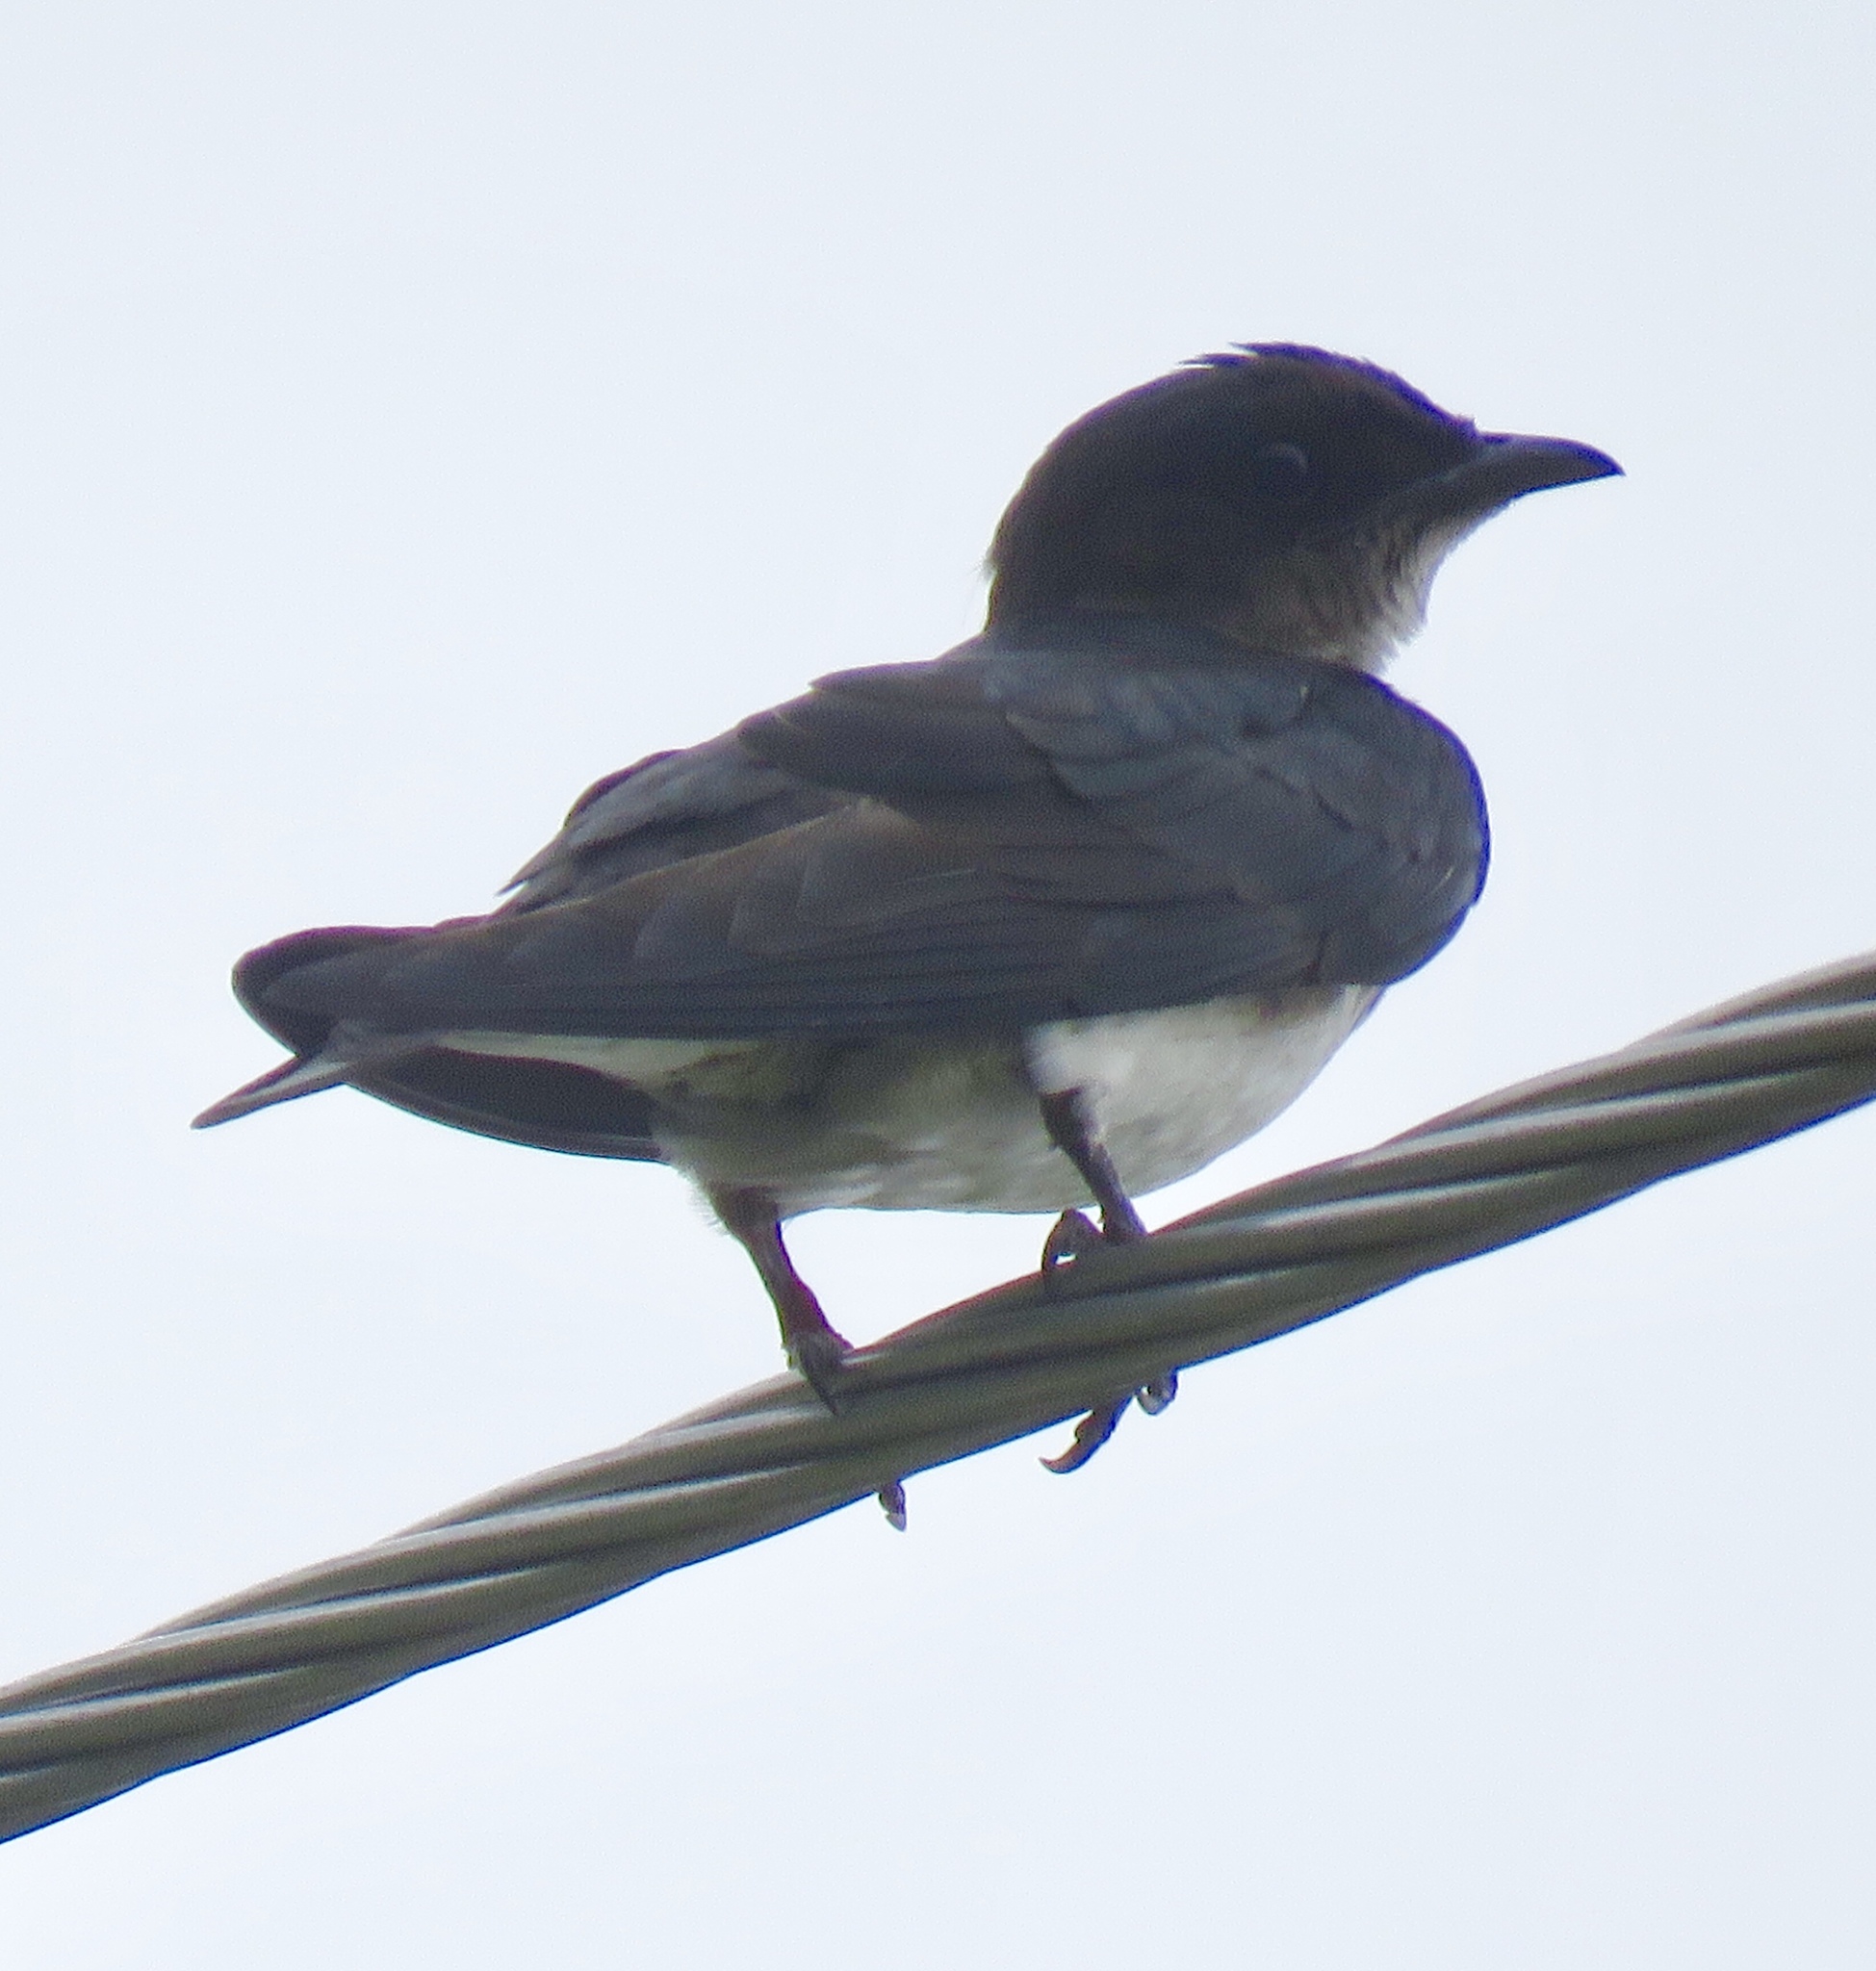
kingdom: Animalia
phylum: Chordata
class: Aves
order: Passeriformes
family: Hirundinidae
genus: Progne
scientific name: Progne chalybea
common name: Grey-breasted martin
